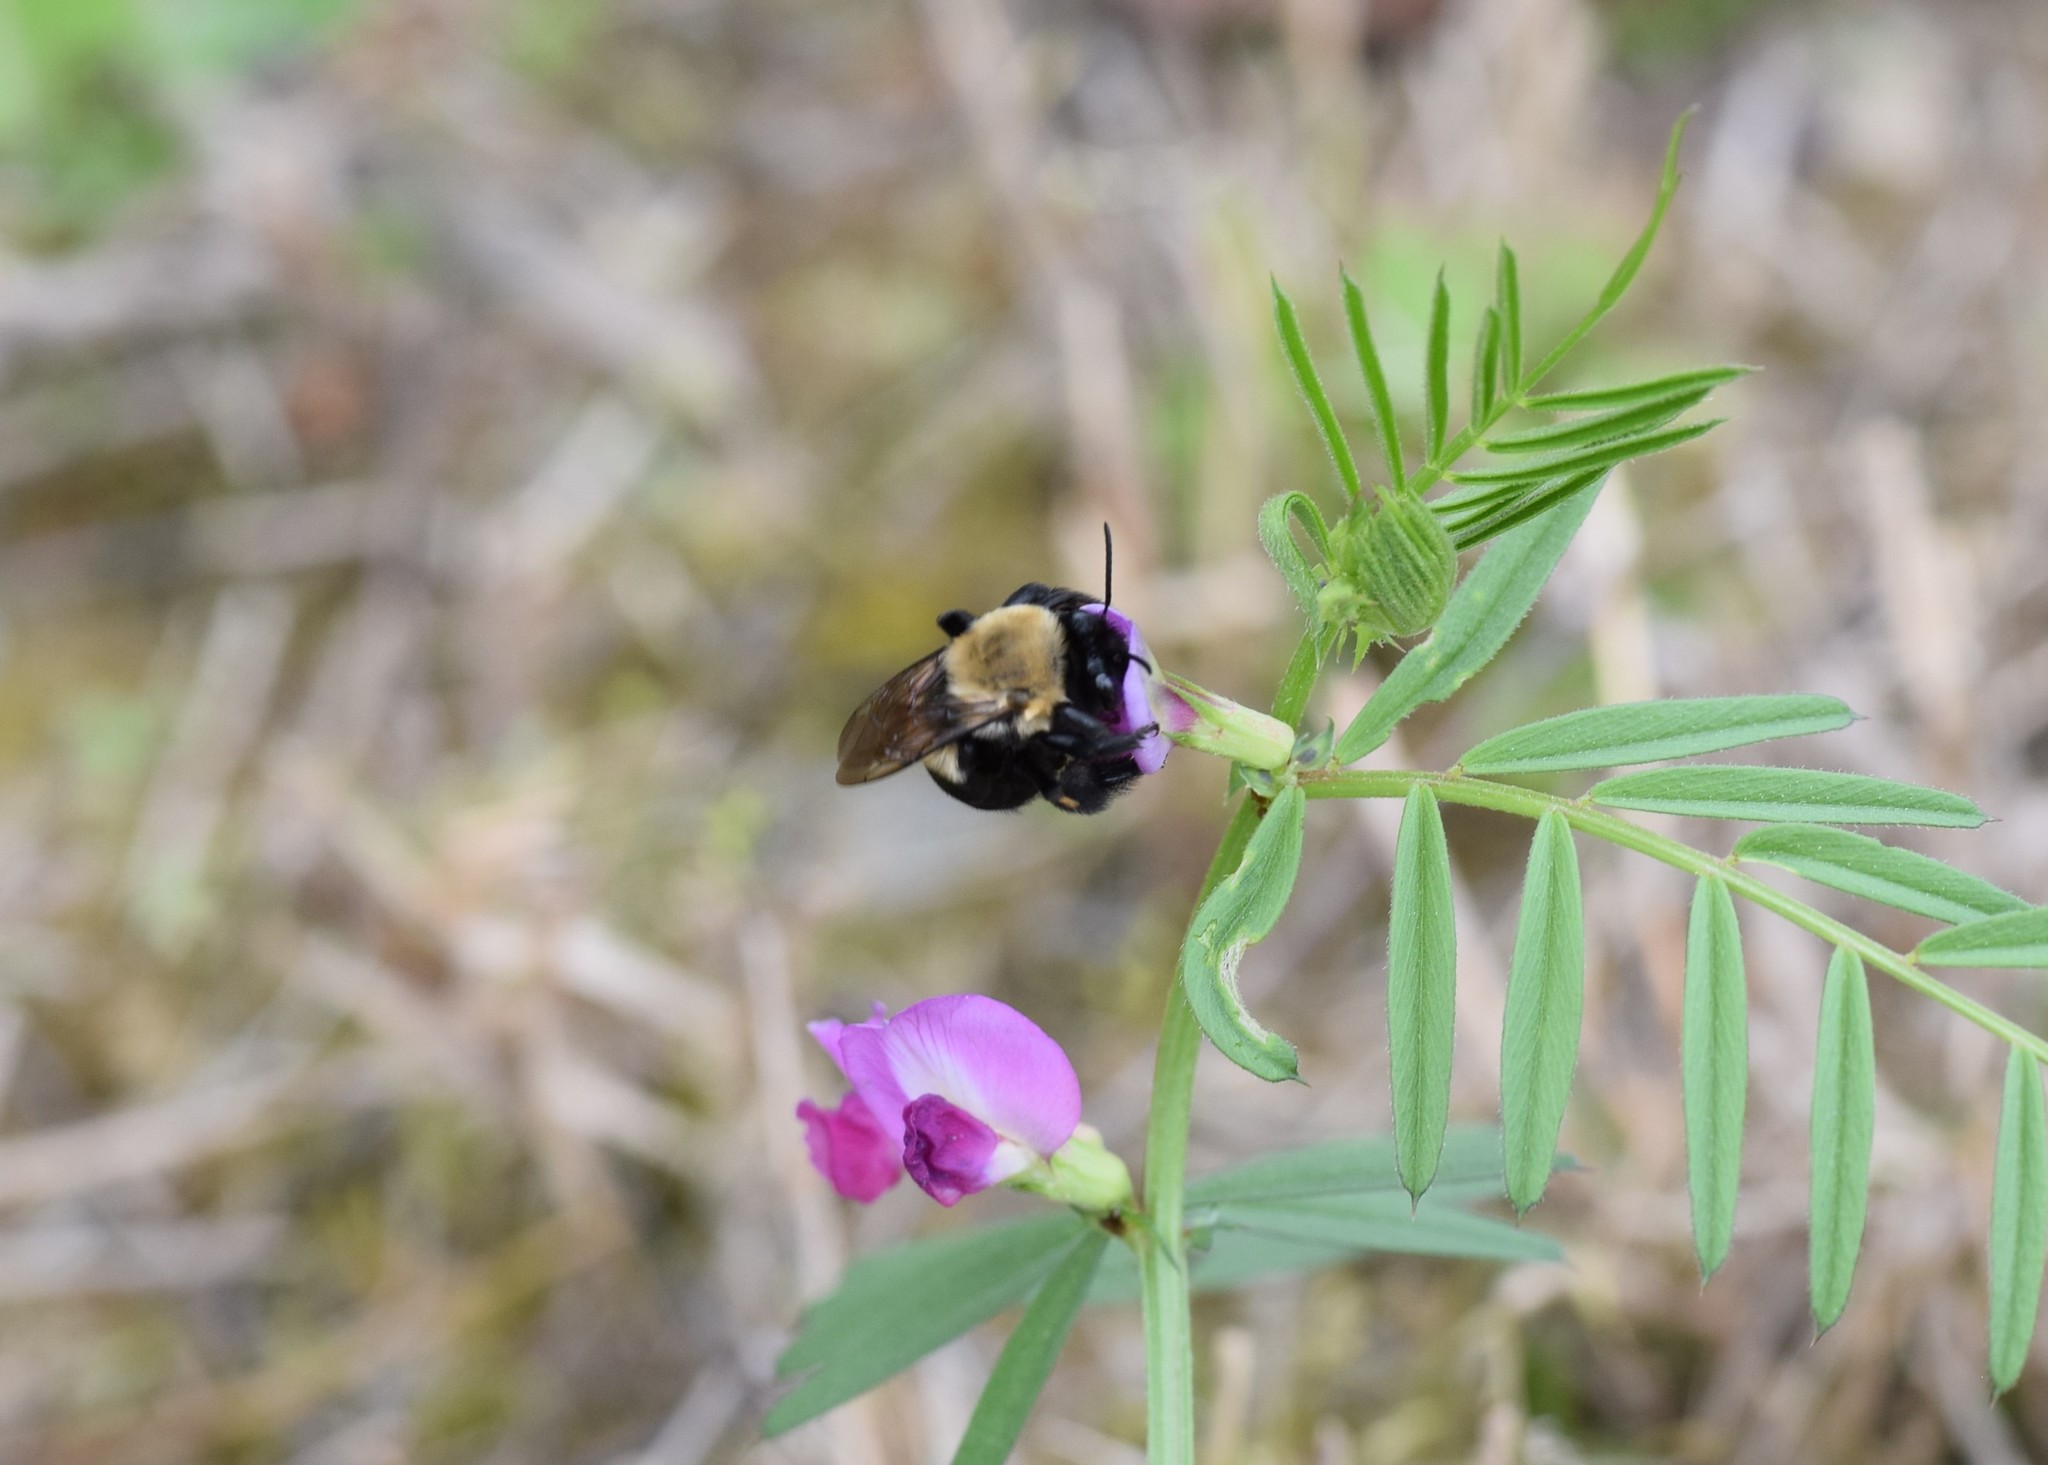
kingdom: Animalia
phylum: Arthropoda
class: Insecta
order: Hymenoptera
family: Apidae
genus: Habropoda
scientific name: Habropoda laboriosa
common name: Southeastern blueberry bee
